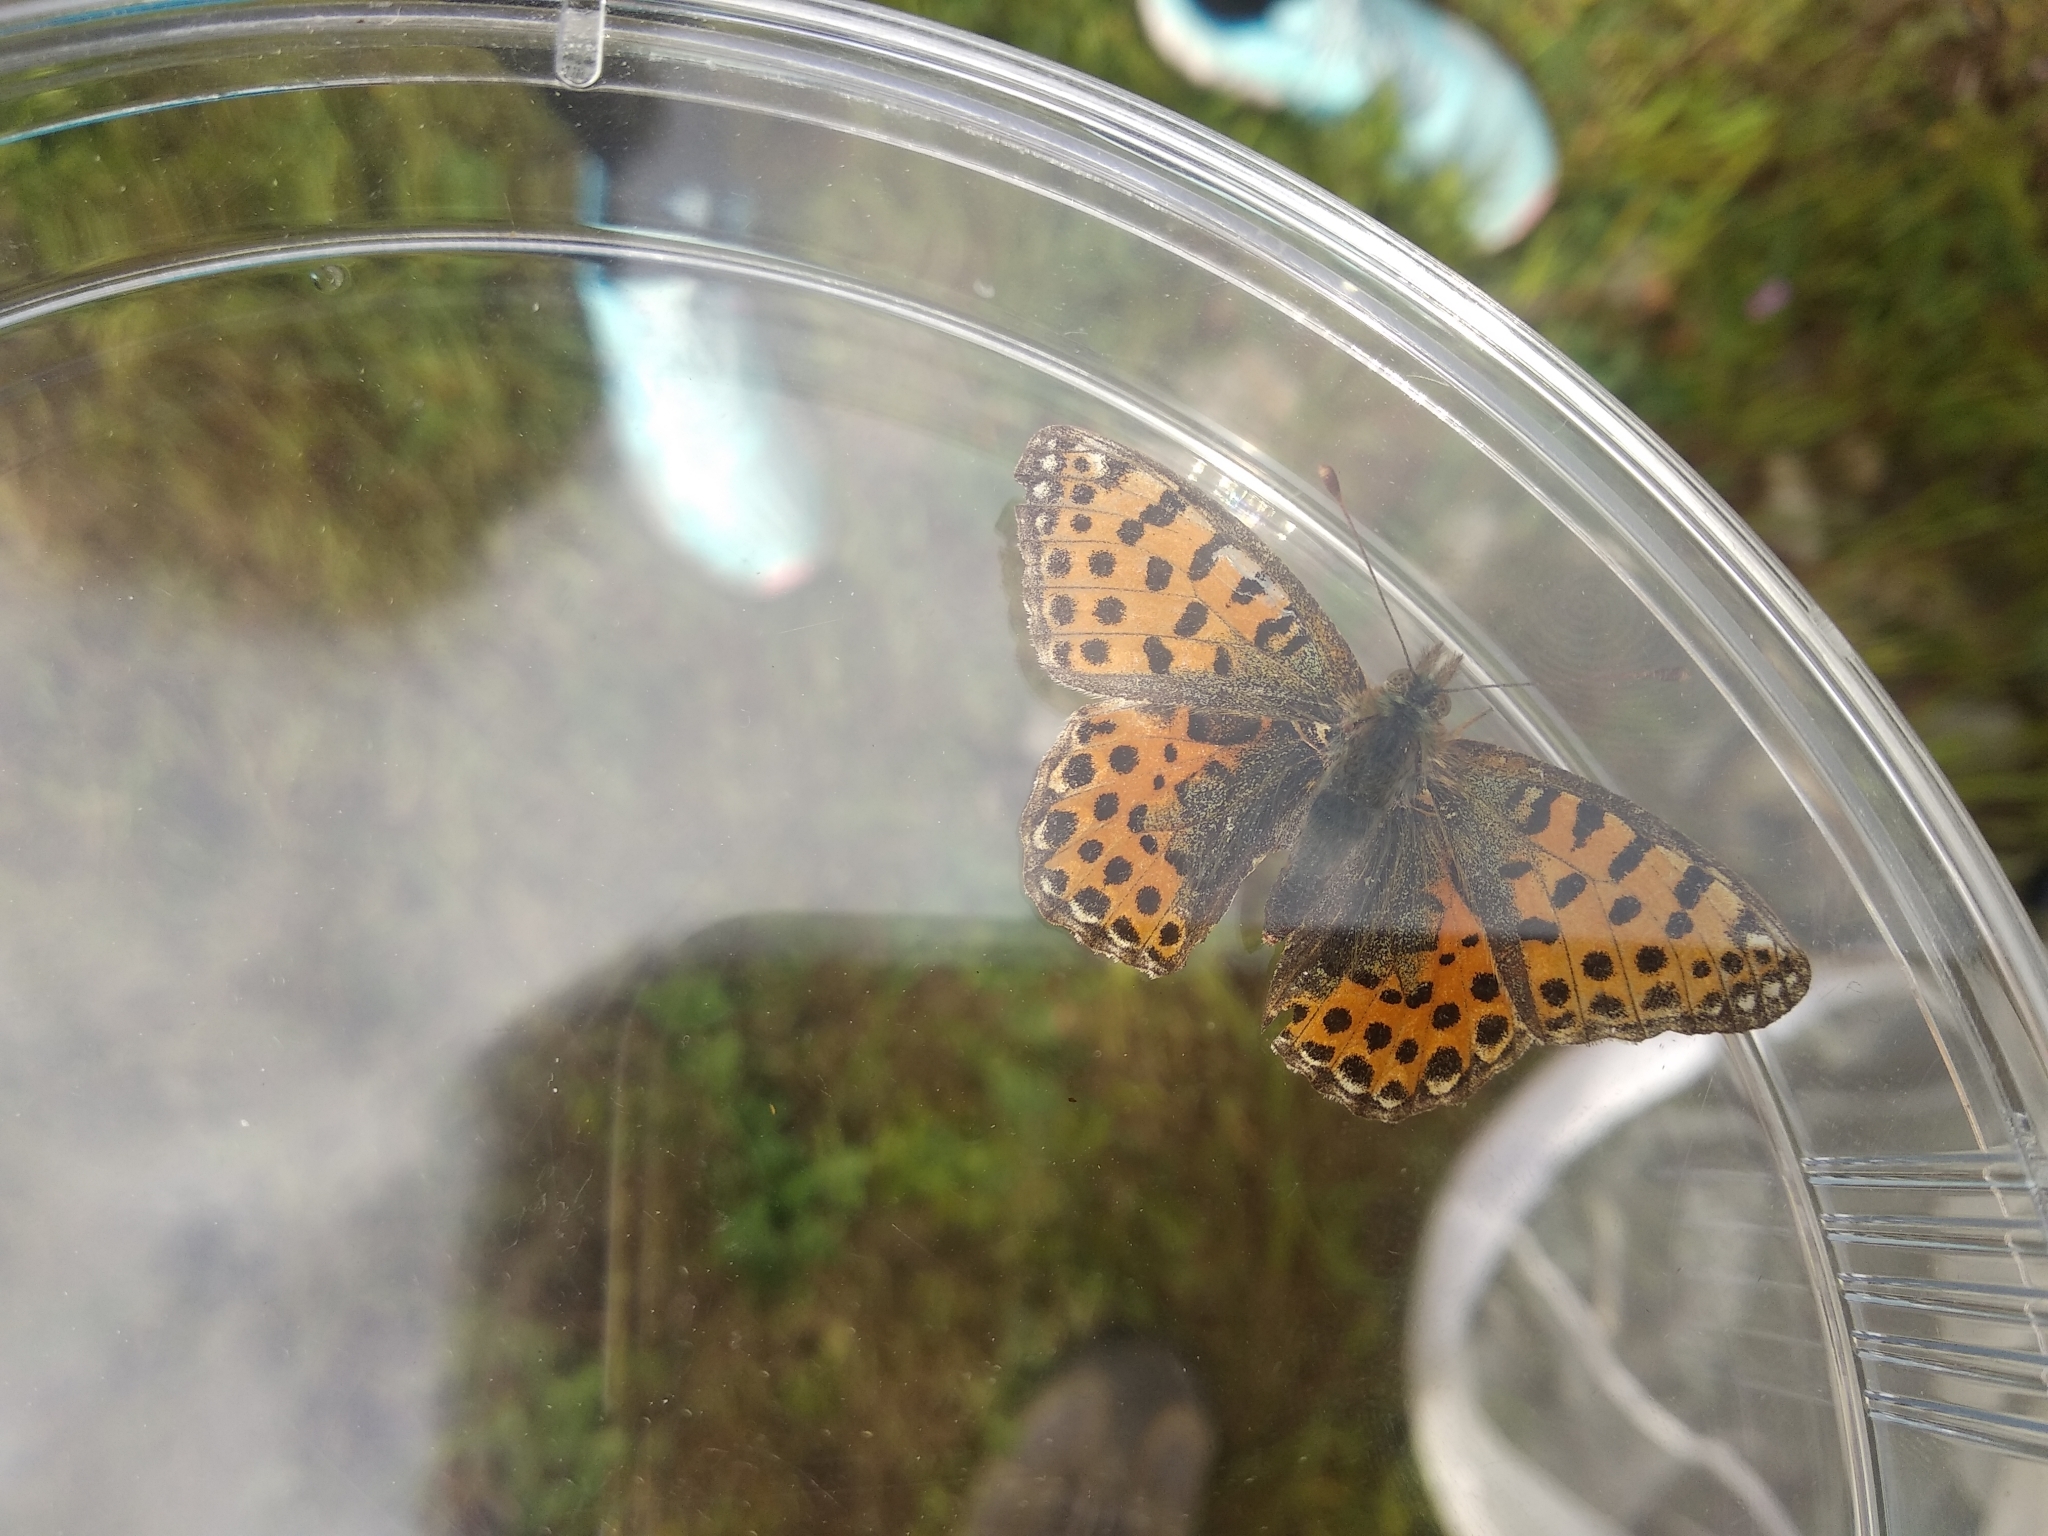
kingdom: Animalia
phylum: Arthropoda
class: Insecta
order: Lepidoptera
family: Nymphalidae
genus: Issoria
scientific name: Issoria lathonia
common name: Queen of spain fritillary
